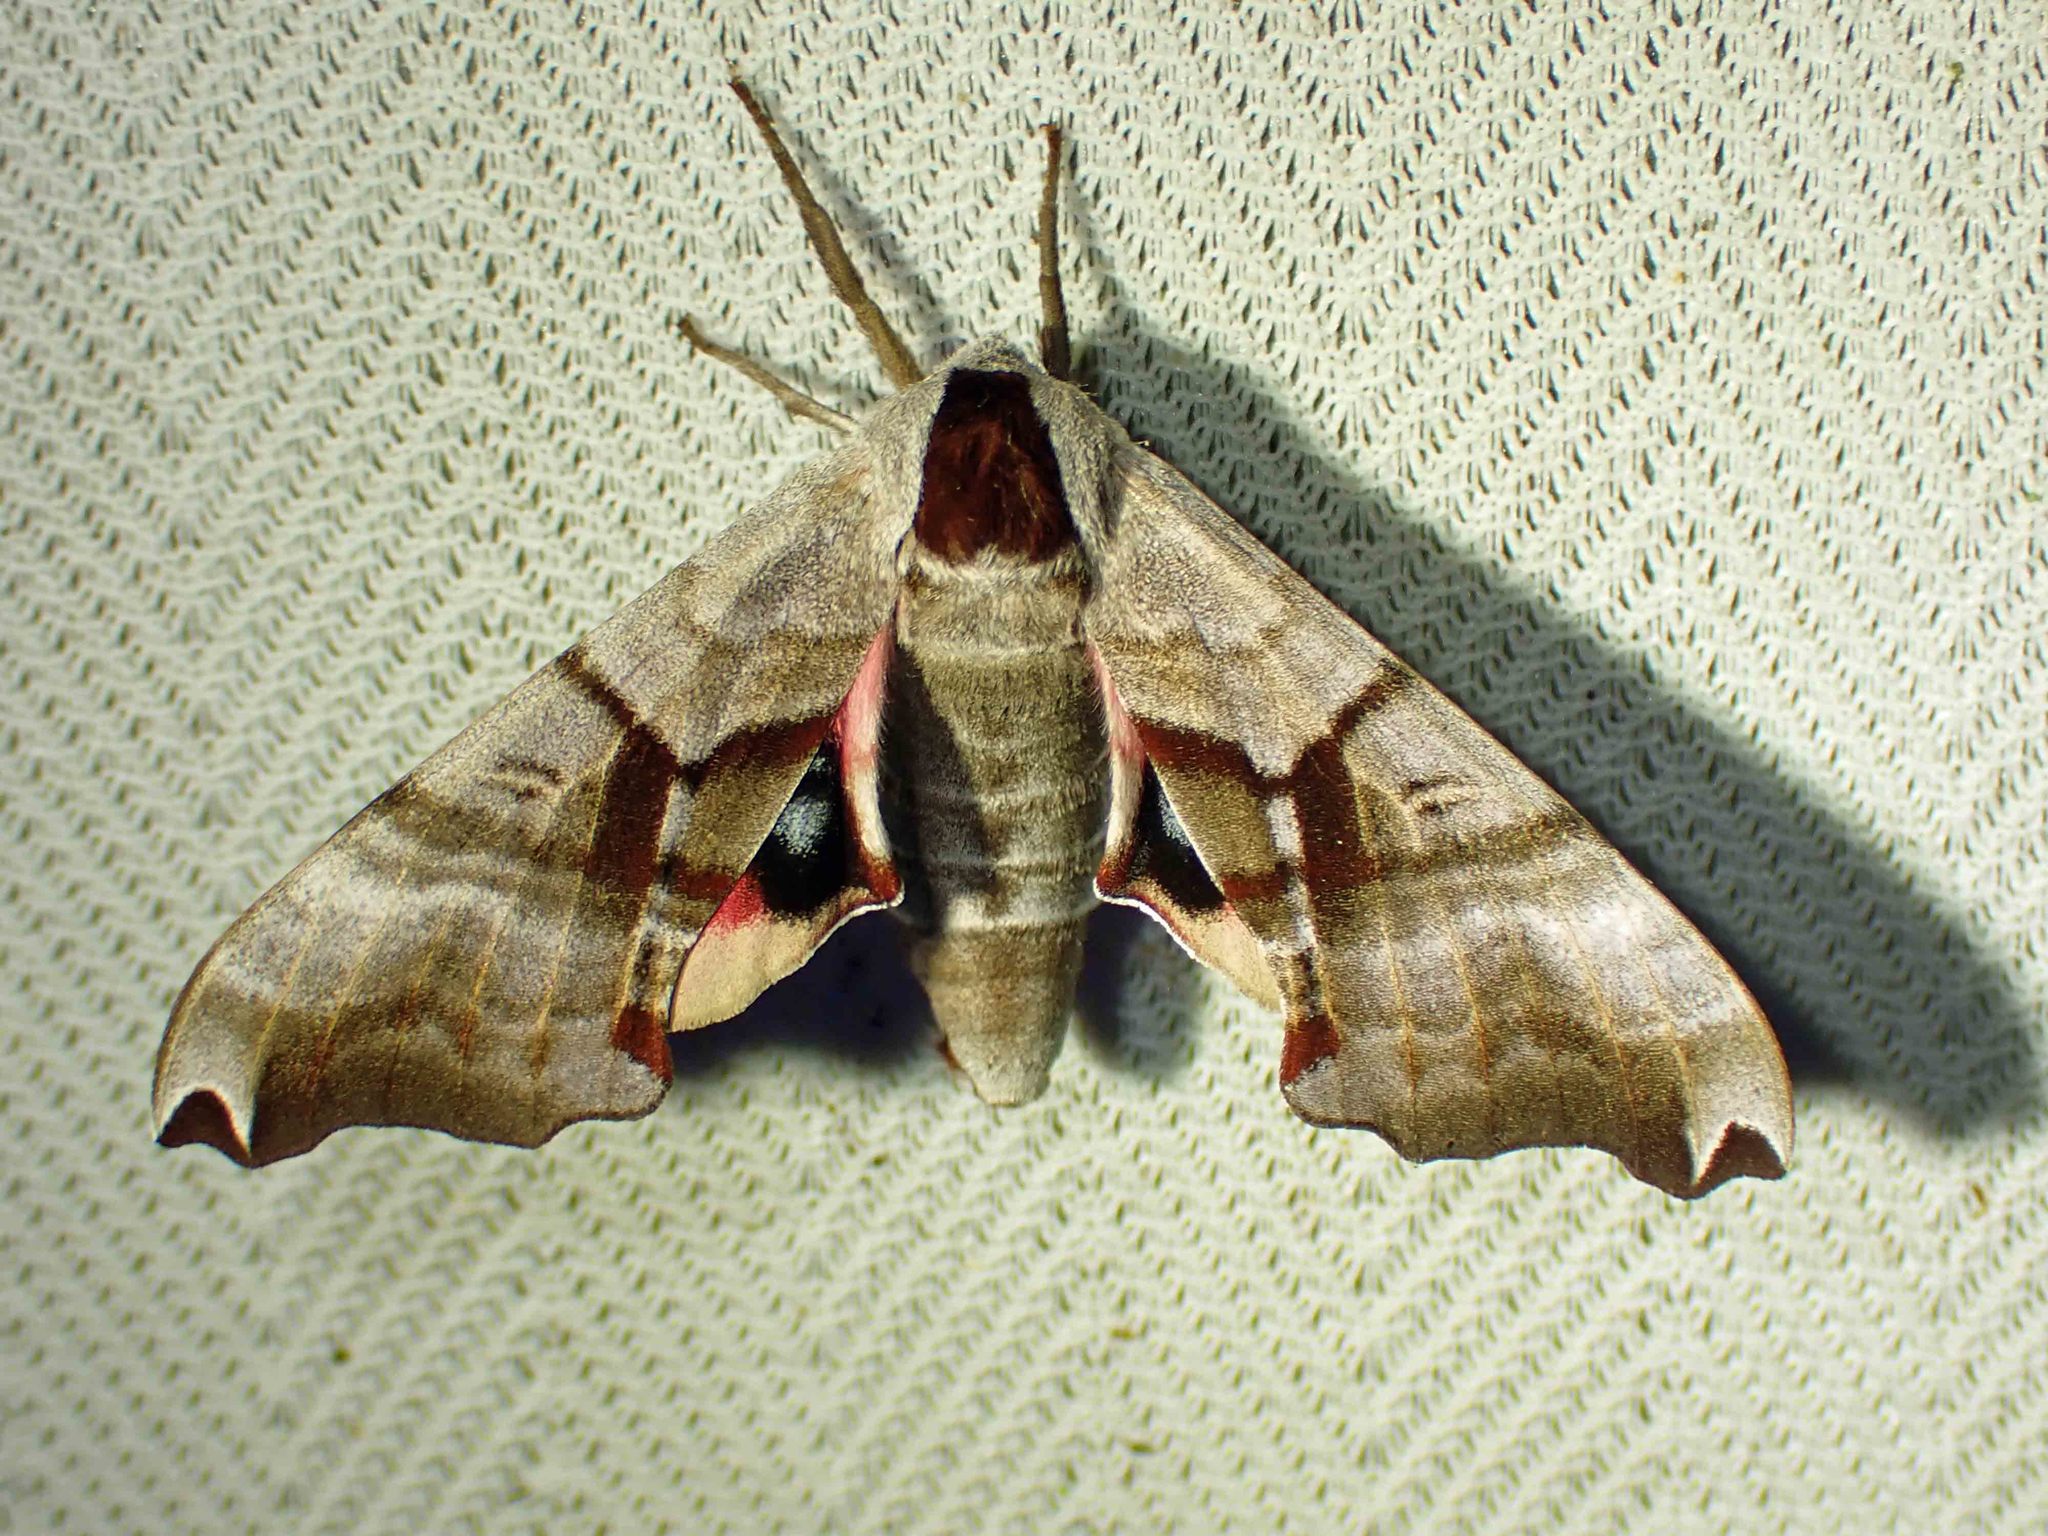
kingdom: Animalia
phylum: Arthropoda
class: Insecta
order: Lepidoptera
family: Sphingidae
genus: Smerinthus
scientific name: Smerinthus jamaicensis
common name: Twin spotted sphinx
